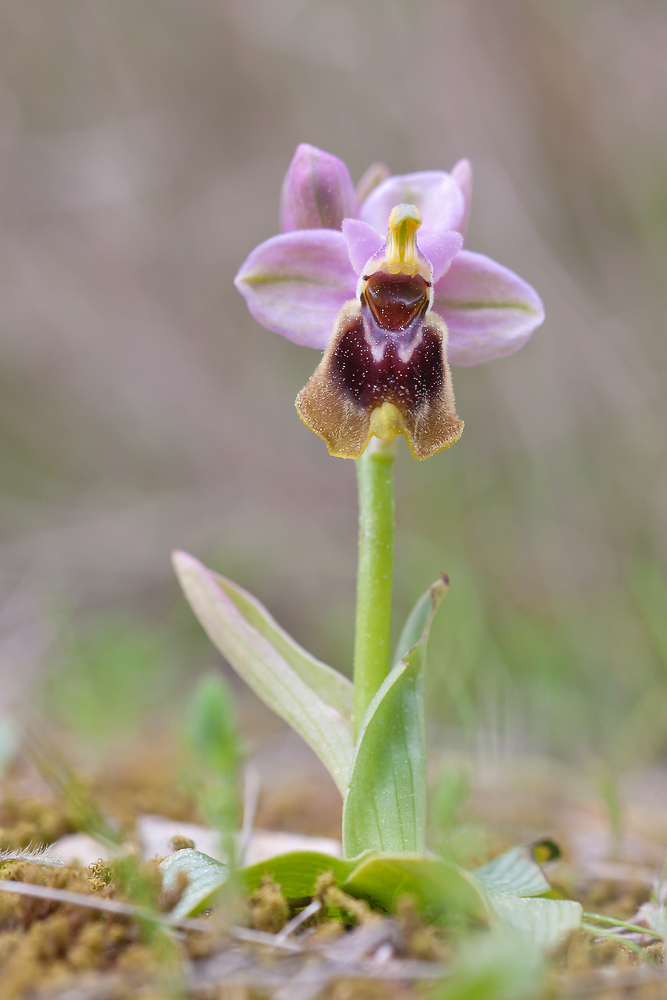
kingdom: Plantae
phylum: Tracheophyta
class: Liliopsida
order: Asparagales
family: Orchidaceae
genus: Ophrys
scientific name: Ophrys tenthredinifera
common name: Sawfly orchid
